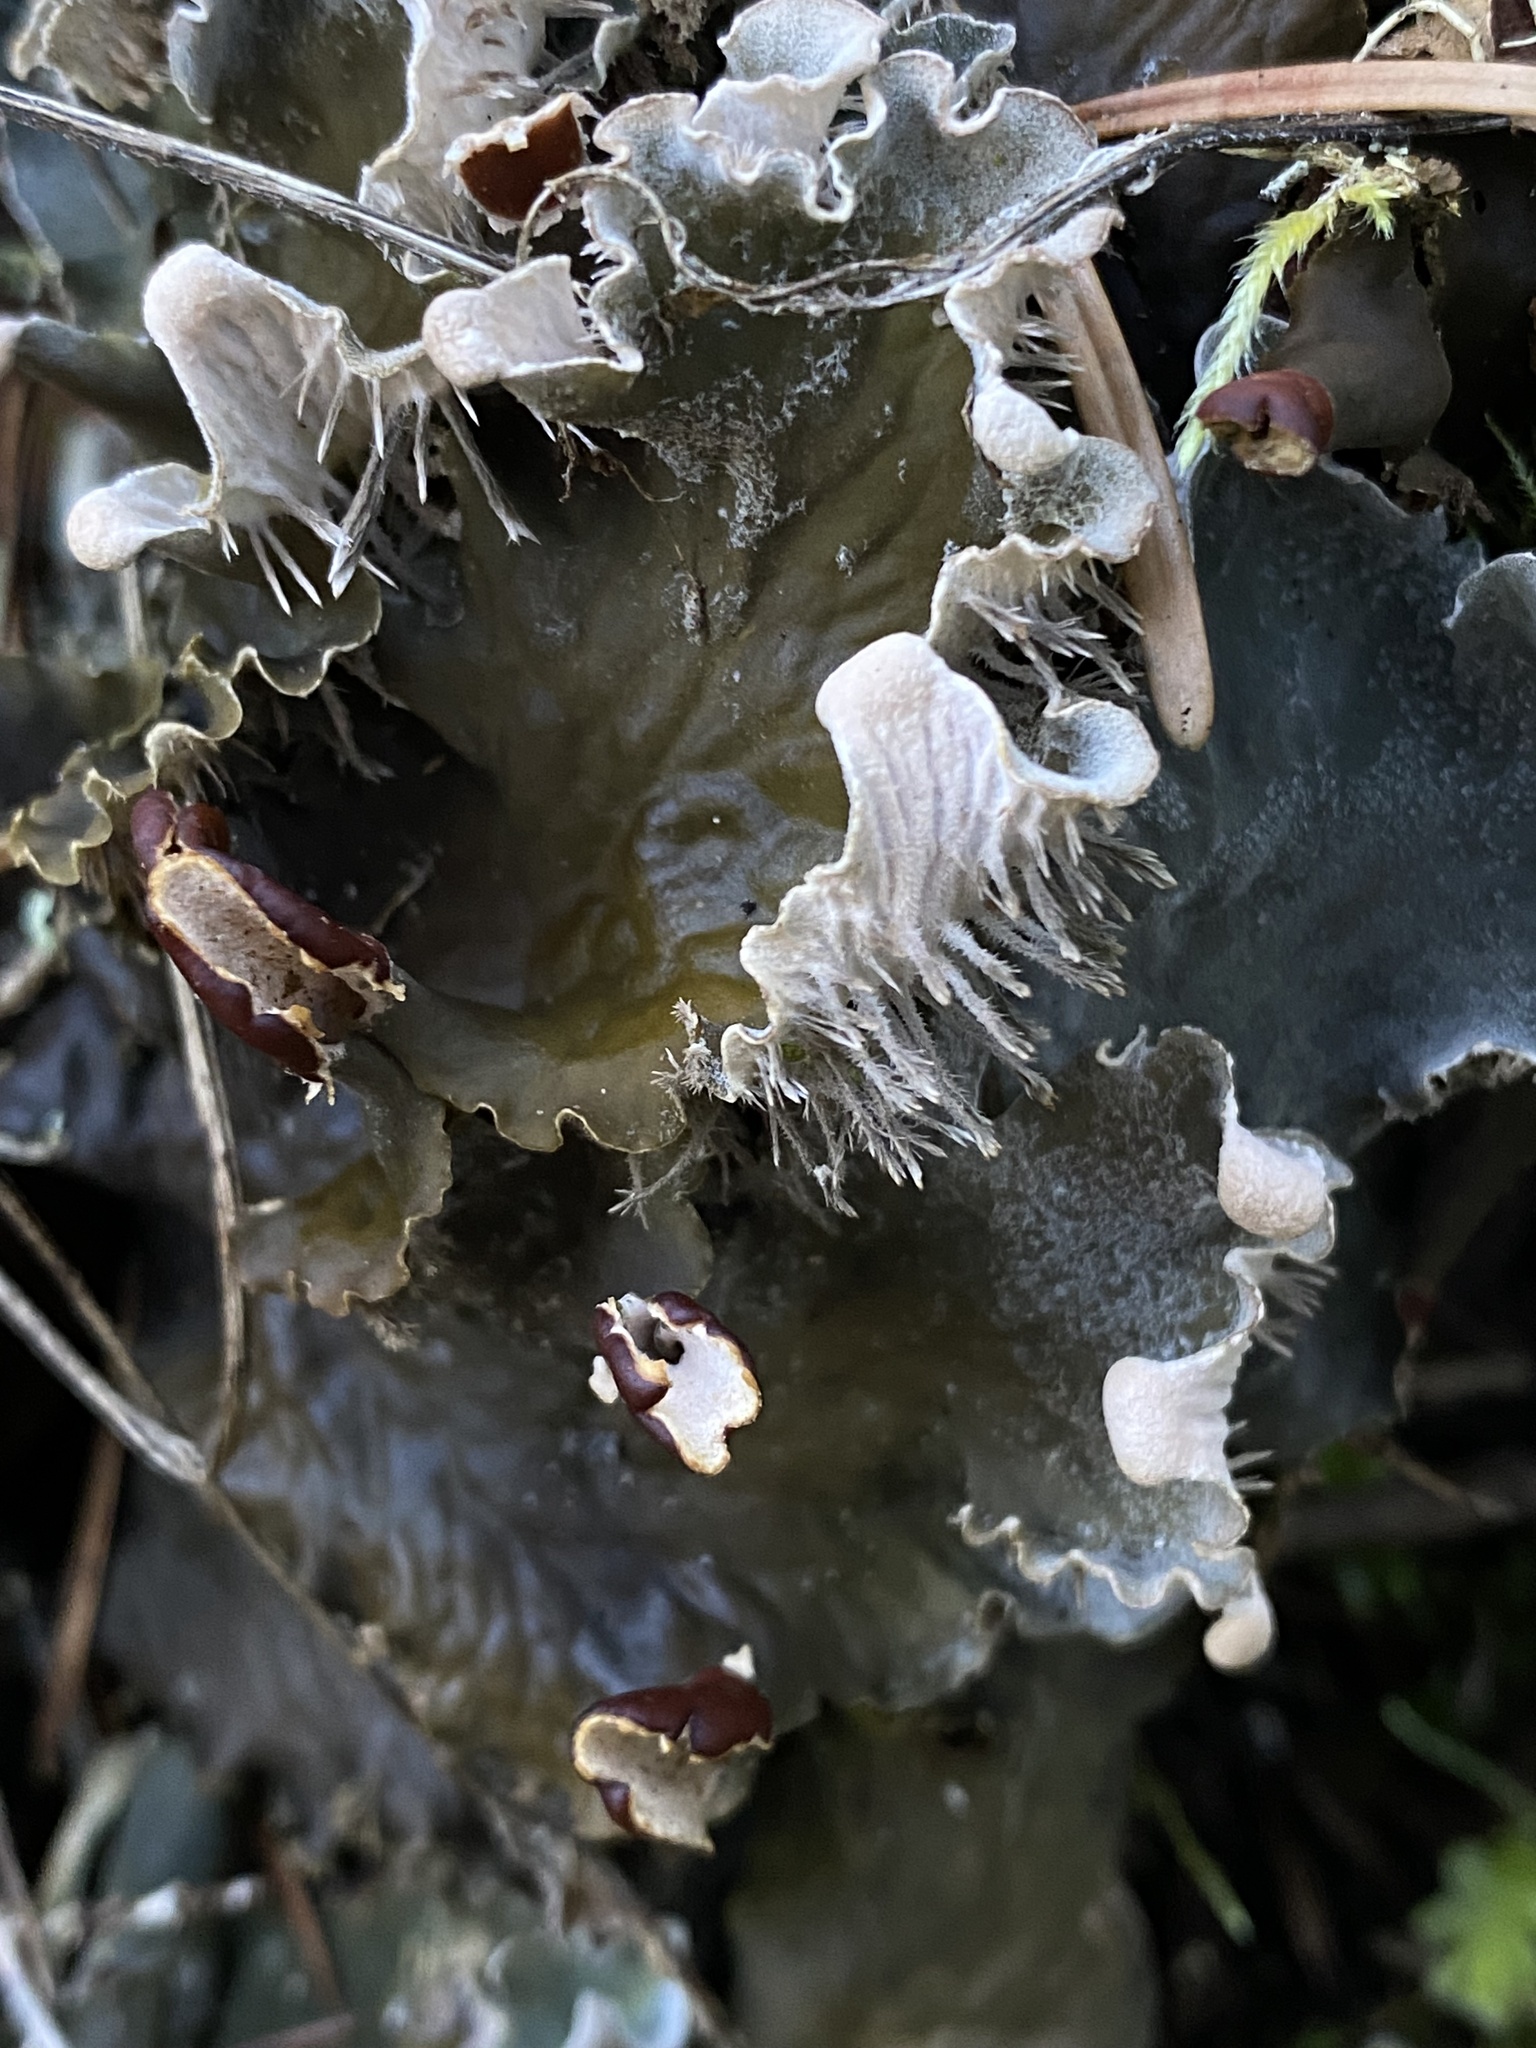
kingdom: Fungi
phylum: Ascomycota
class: Lecanoromycetes
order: Peltigerales
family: Peltigeraceae
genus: Peltigera
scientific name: Peltigera canina
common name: Dog pelt lichen
